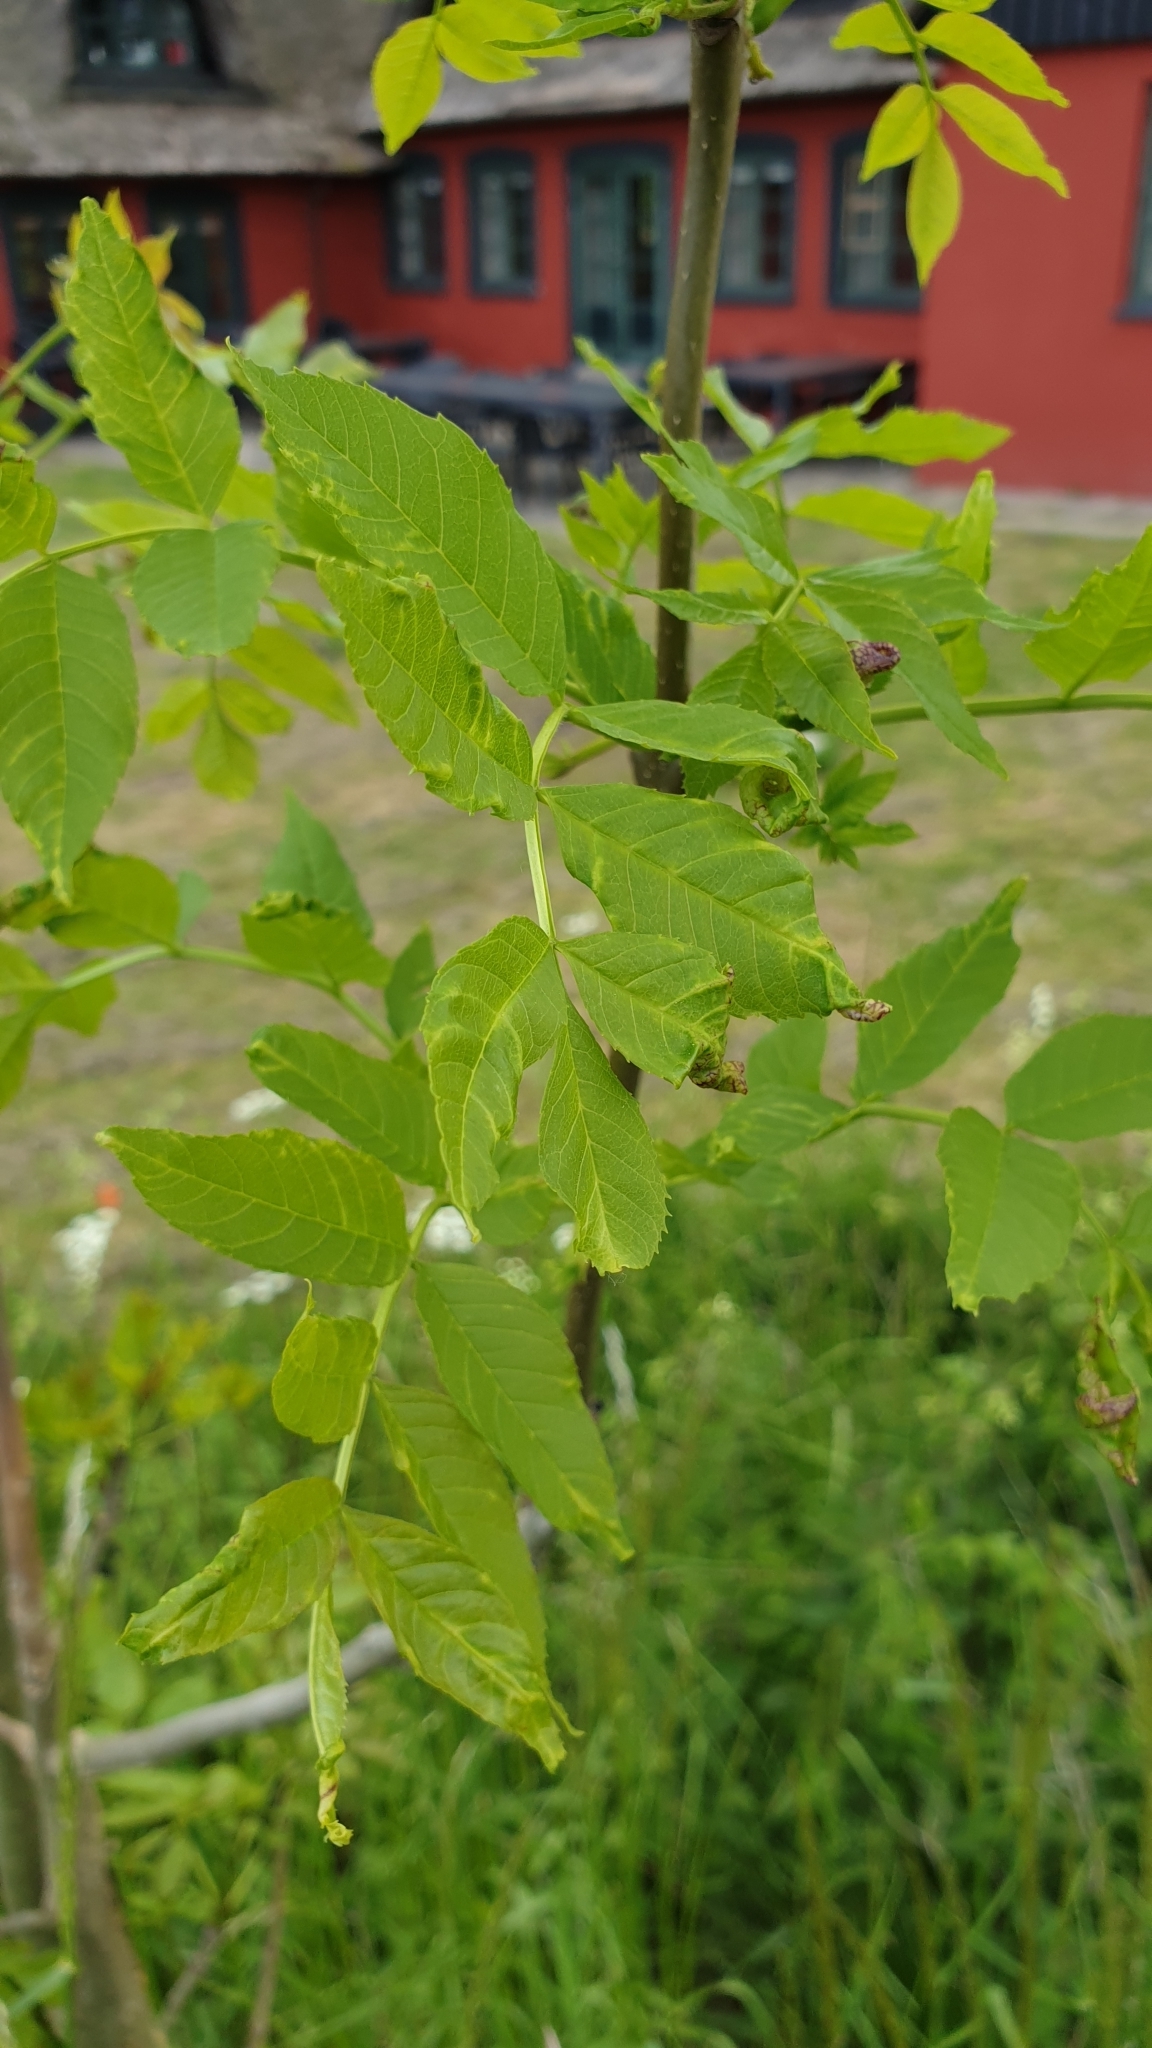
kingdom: Plantae
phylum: Tracheophyta
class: Magnoliopsida
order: Lamiales
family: Oleaceae
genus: Fraxinus
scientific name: Fraxinus excelsior
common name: European ash
